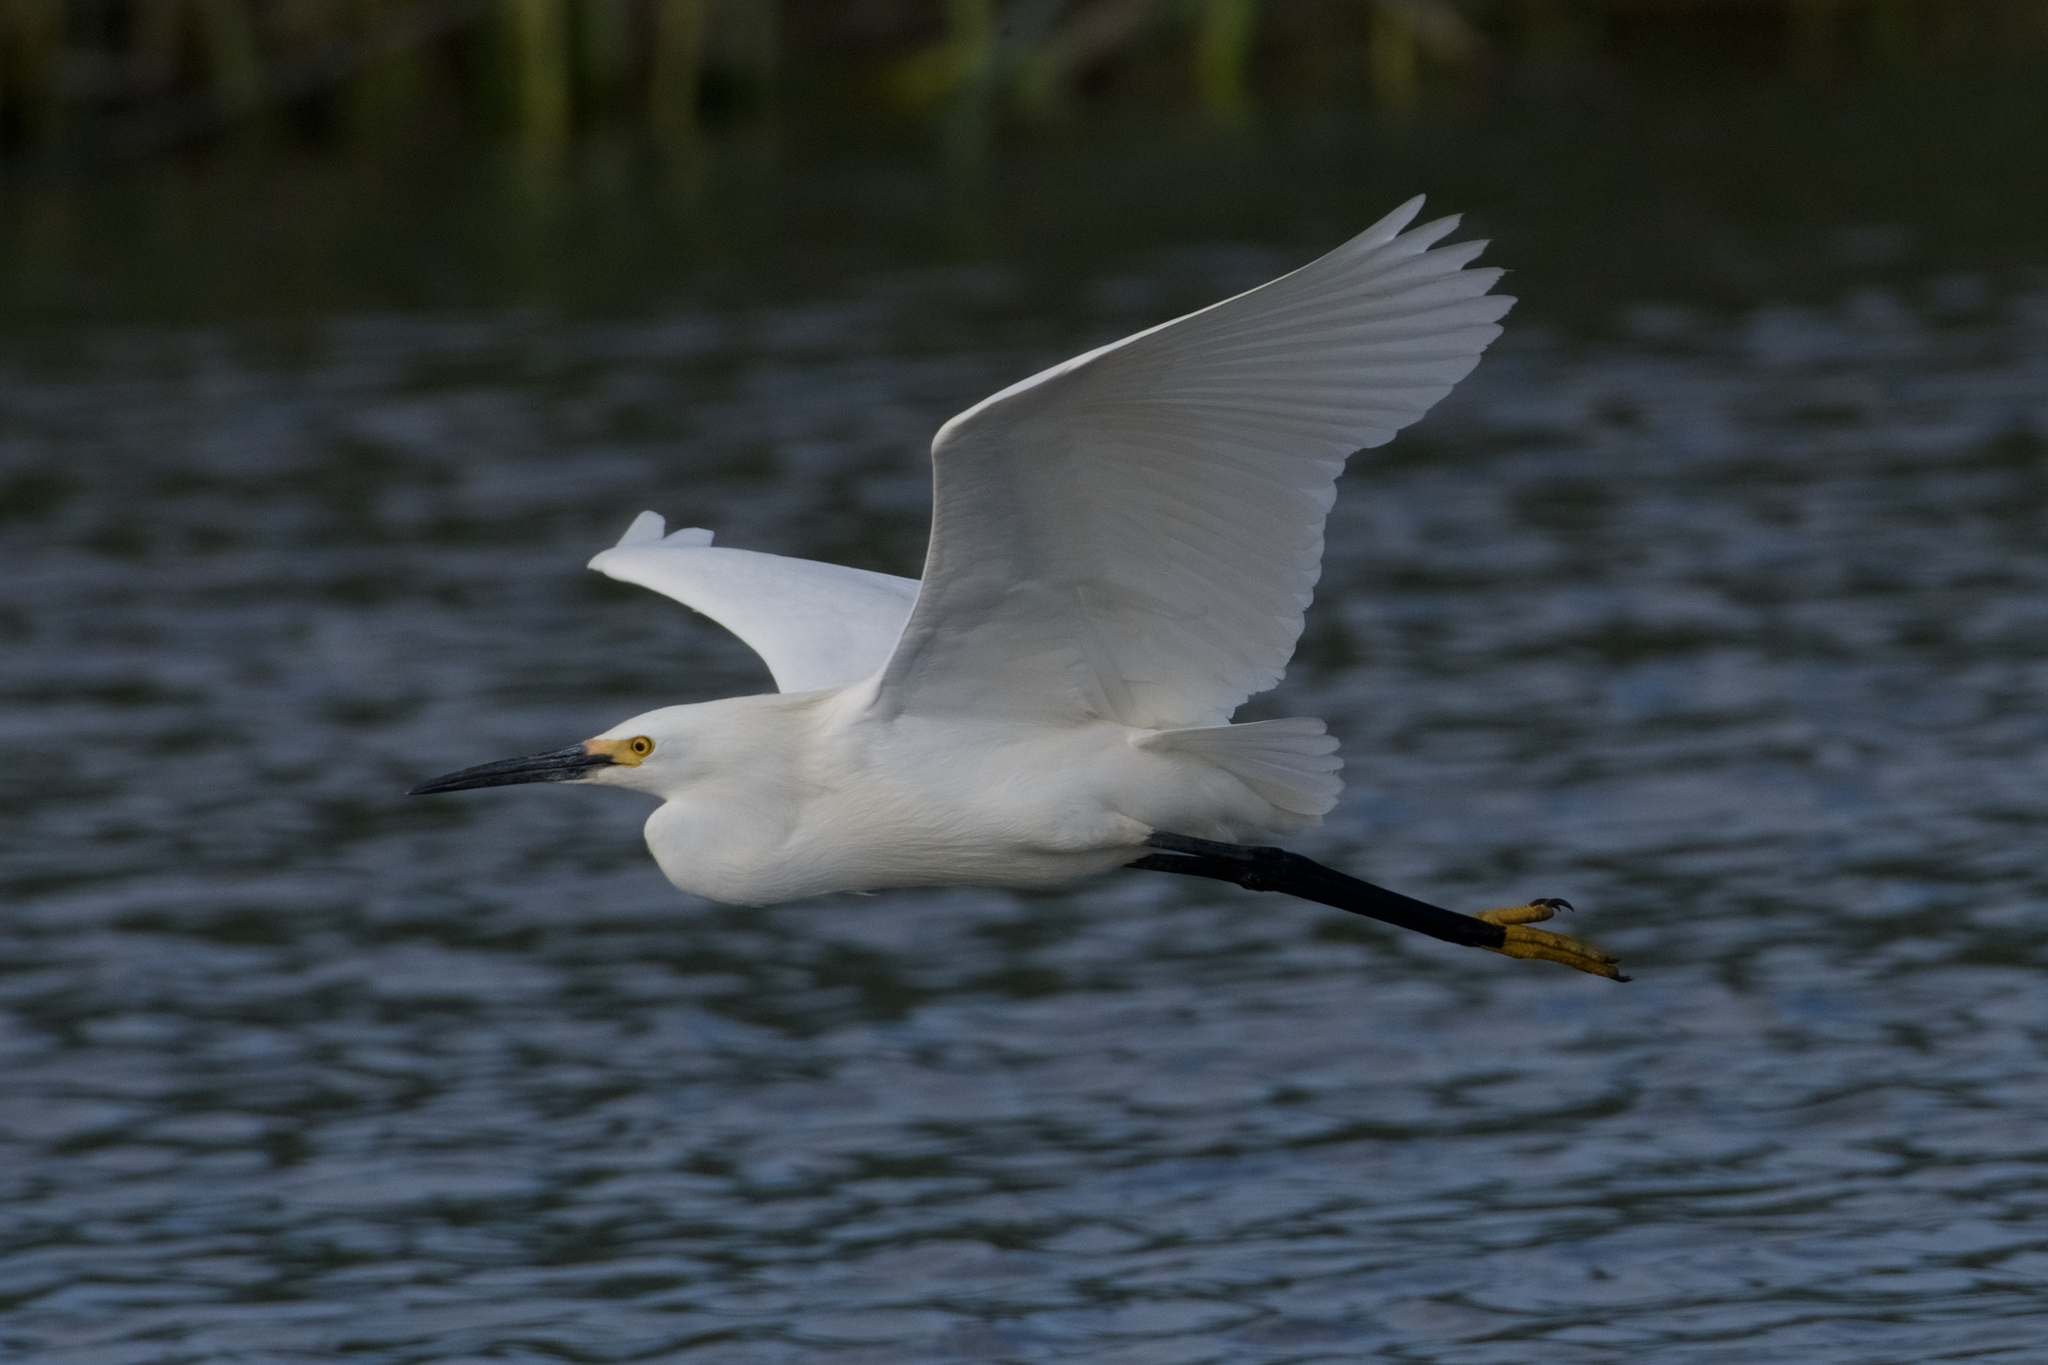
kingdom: Animalia
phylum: Chordata
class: Aves
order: Pelecaniformes
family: Ardeidae
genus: Egretta
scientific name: Egretta thula
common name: Snowy egret
